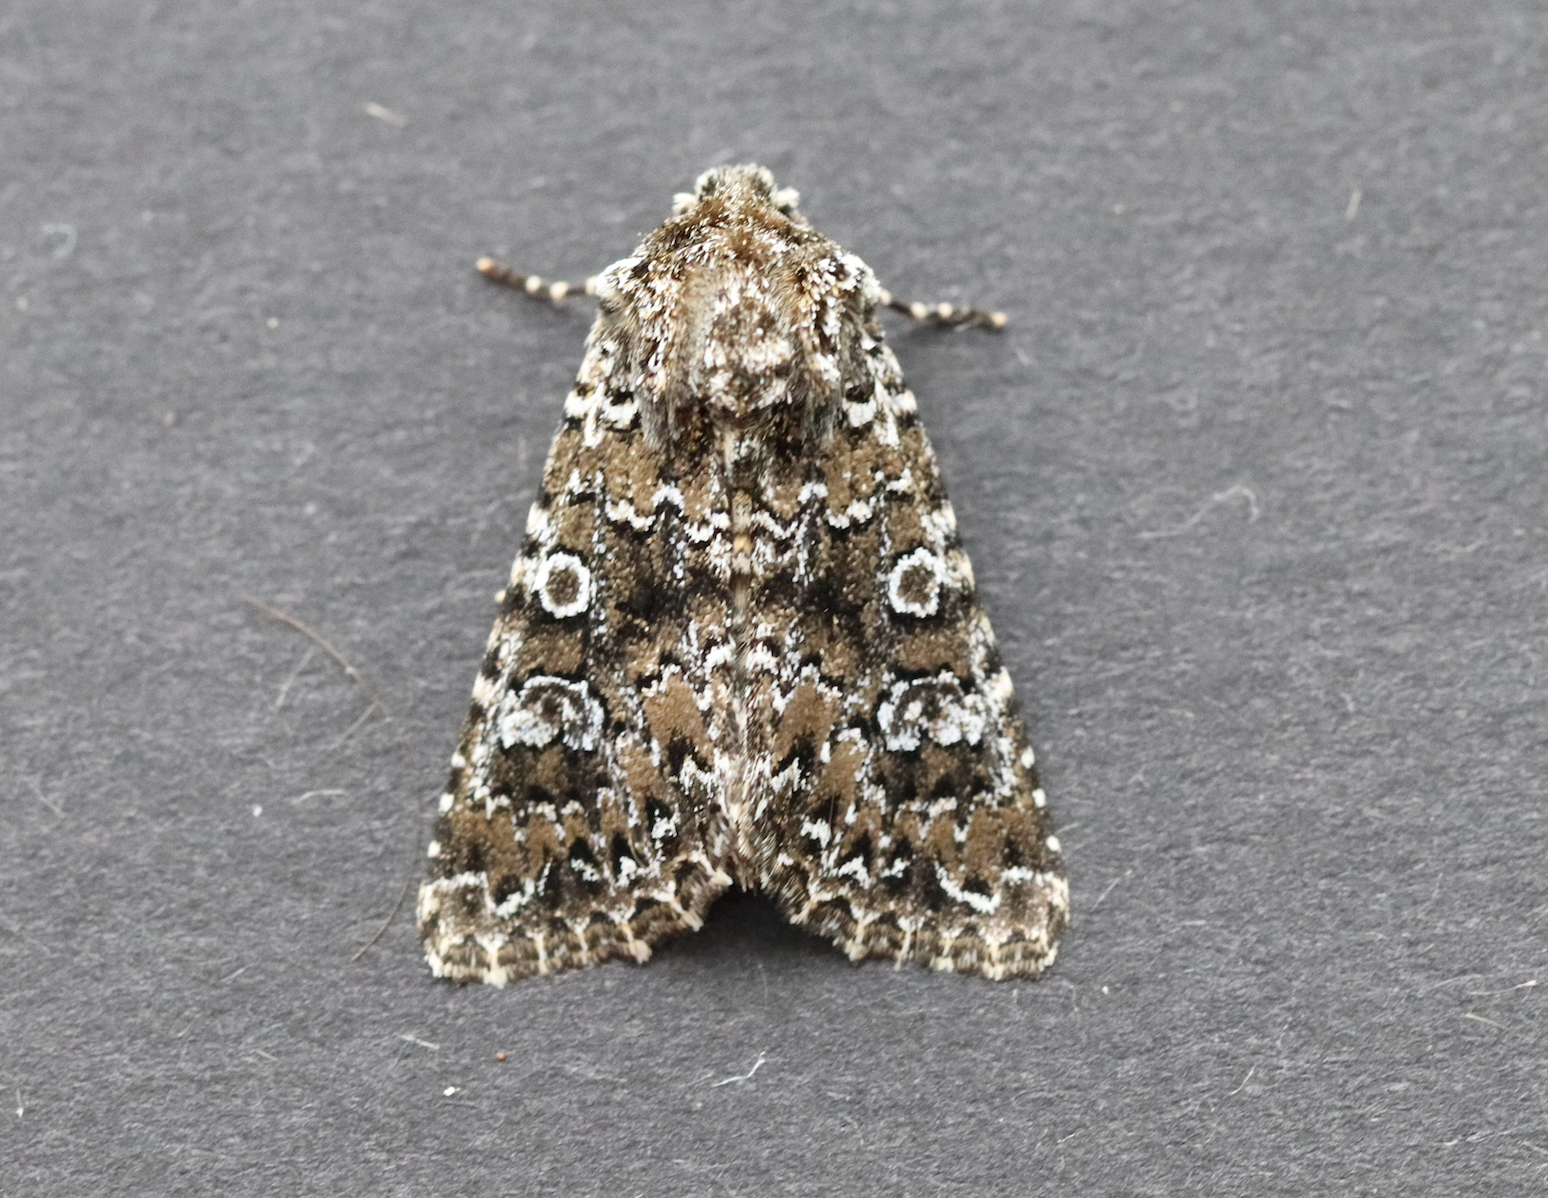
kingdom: Animalia
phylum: Arthropoda
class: Insecta
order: Lepidoptera
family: Noctuidae
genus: Hadena
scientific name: Hadena magnolii
